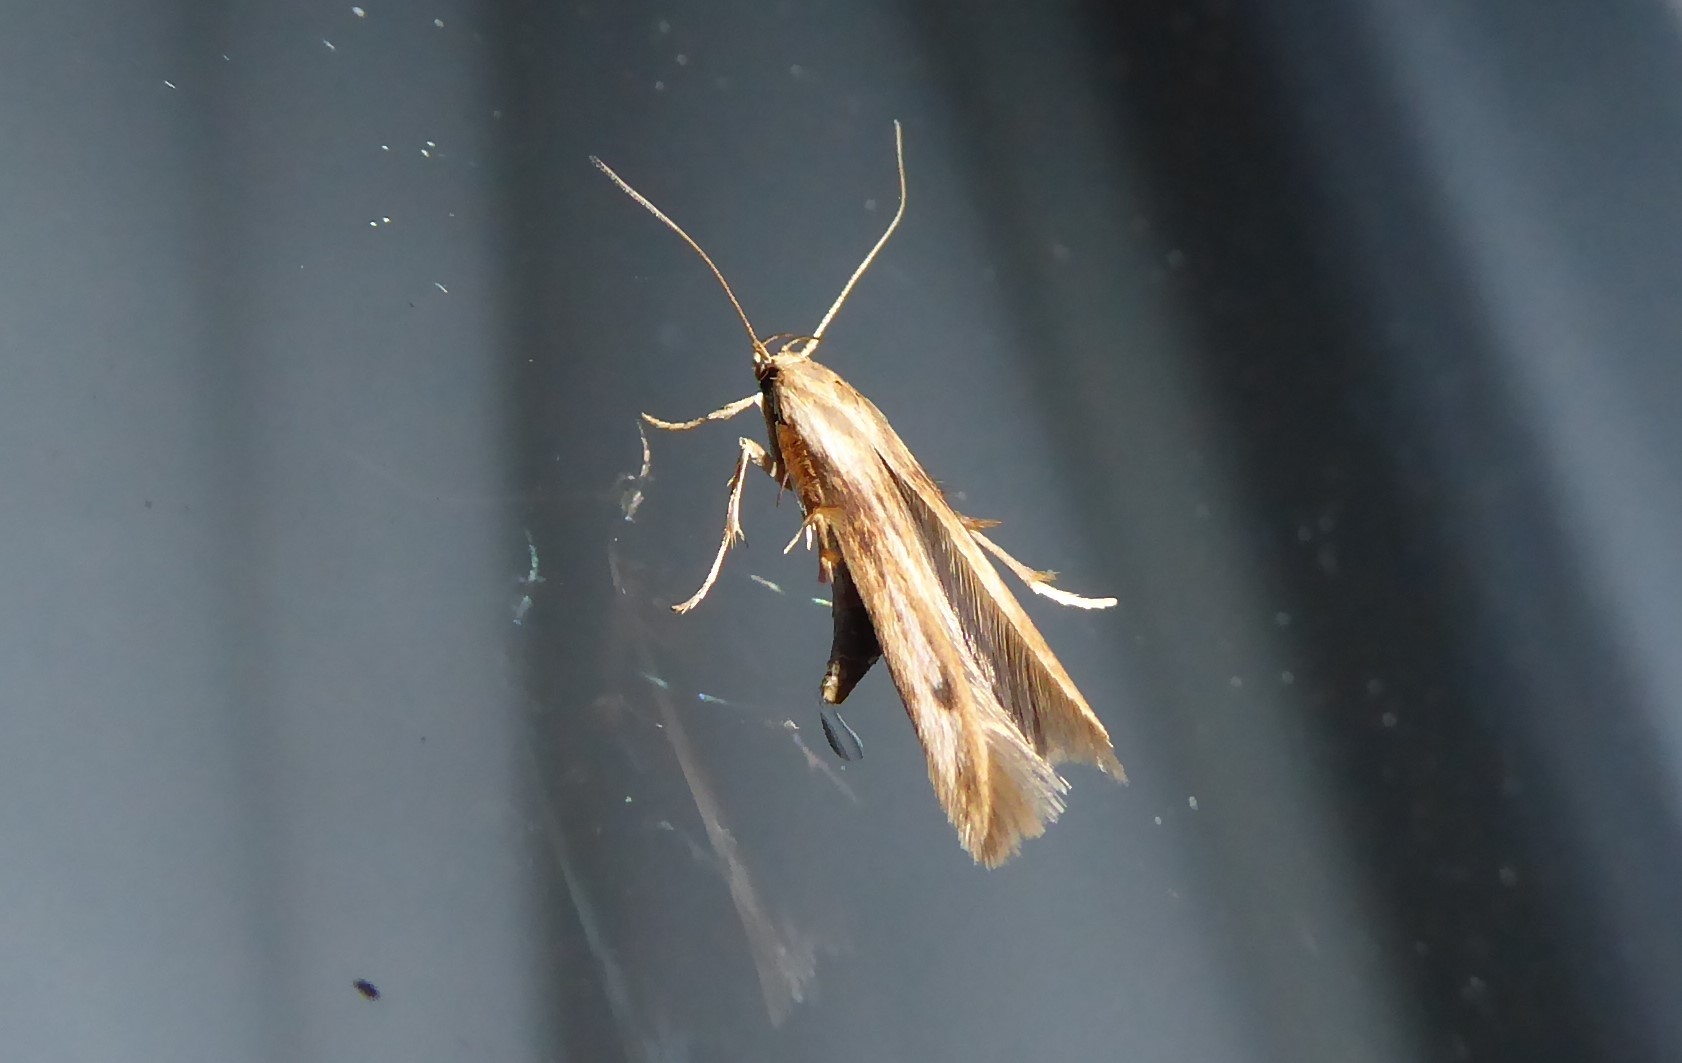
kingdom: Animalia
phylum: Arthropoda
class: Insecta
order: Lepidoptera
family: Stathmopodidae
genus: Stathmopoda
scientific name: Stathmopoda aposema
